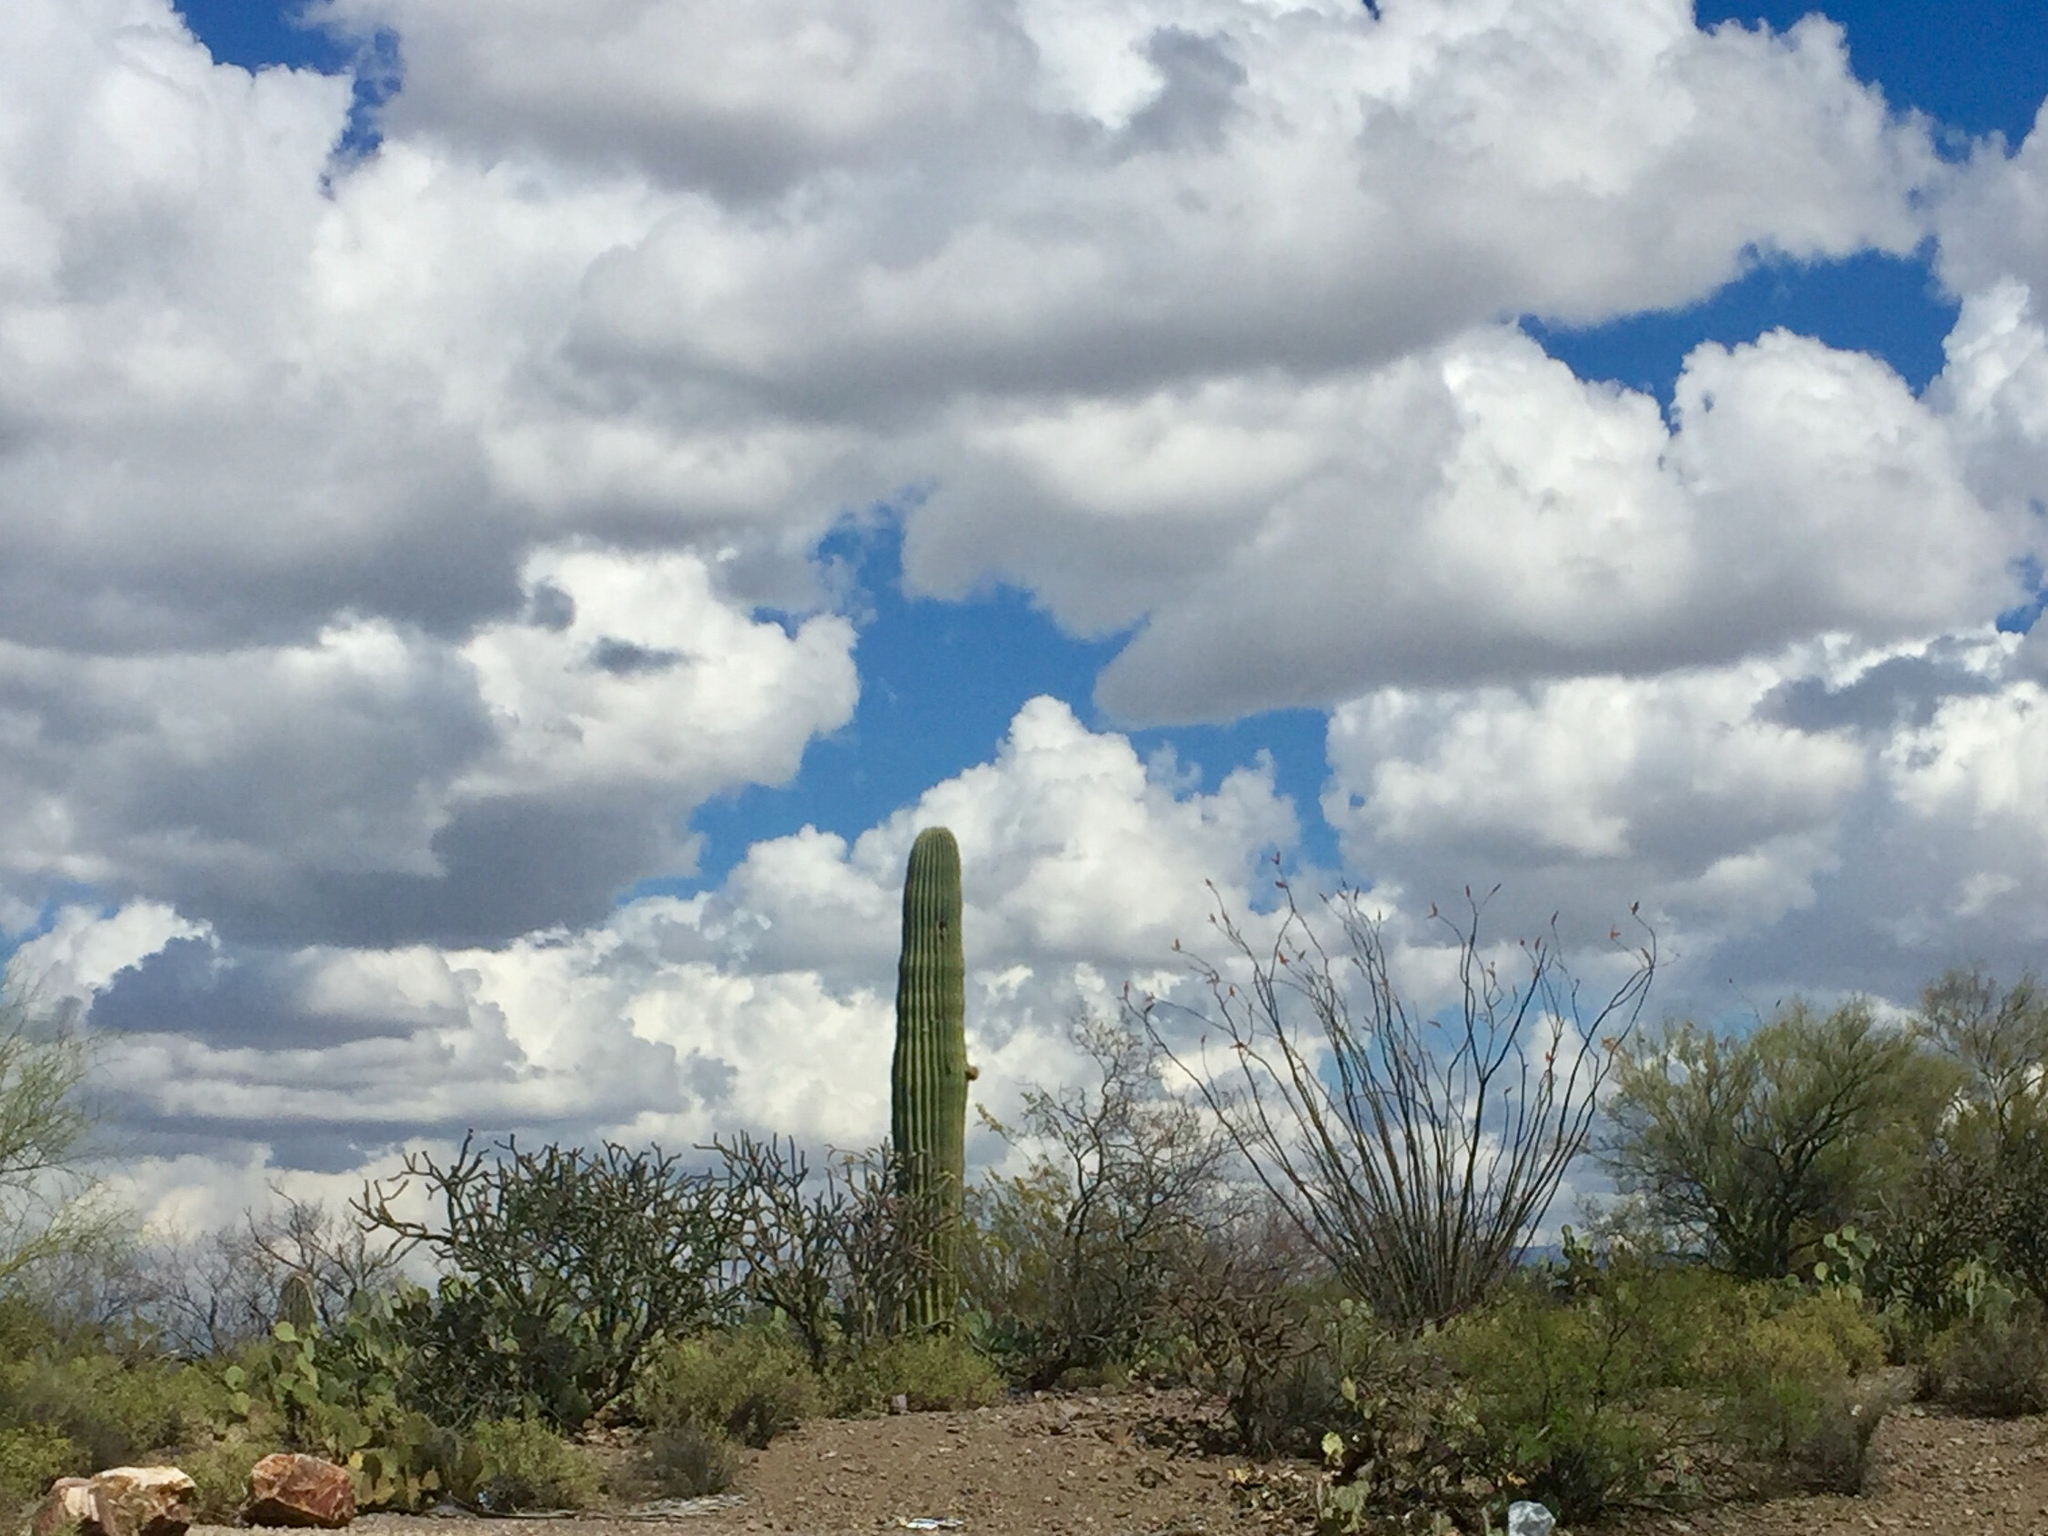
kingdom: Plantae
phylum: Tracheophyta
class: Magnoliopsida
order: Caryophyllales
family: Cactaceae
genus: Carnegiea
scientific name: Carnegiea gigantea
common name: Saguaro
